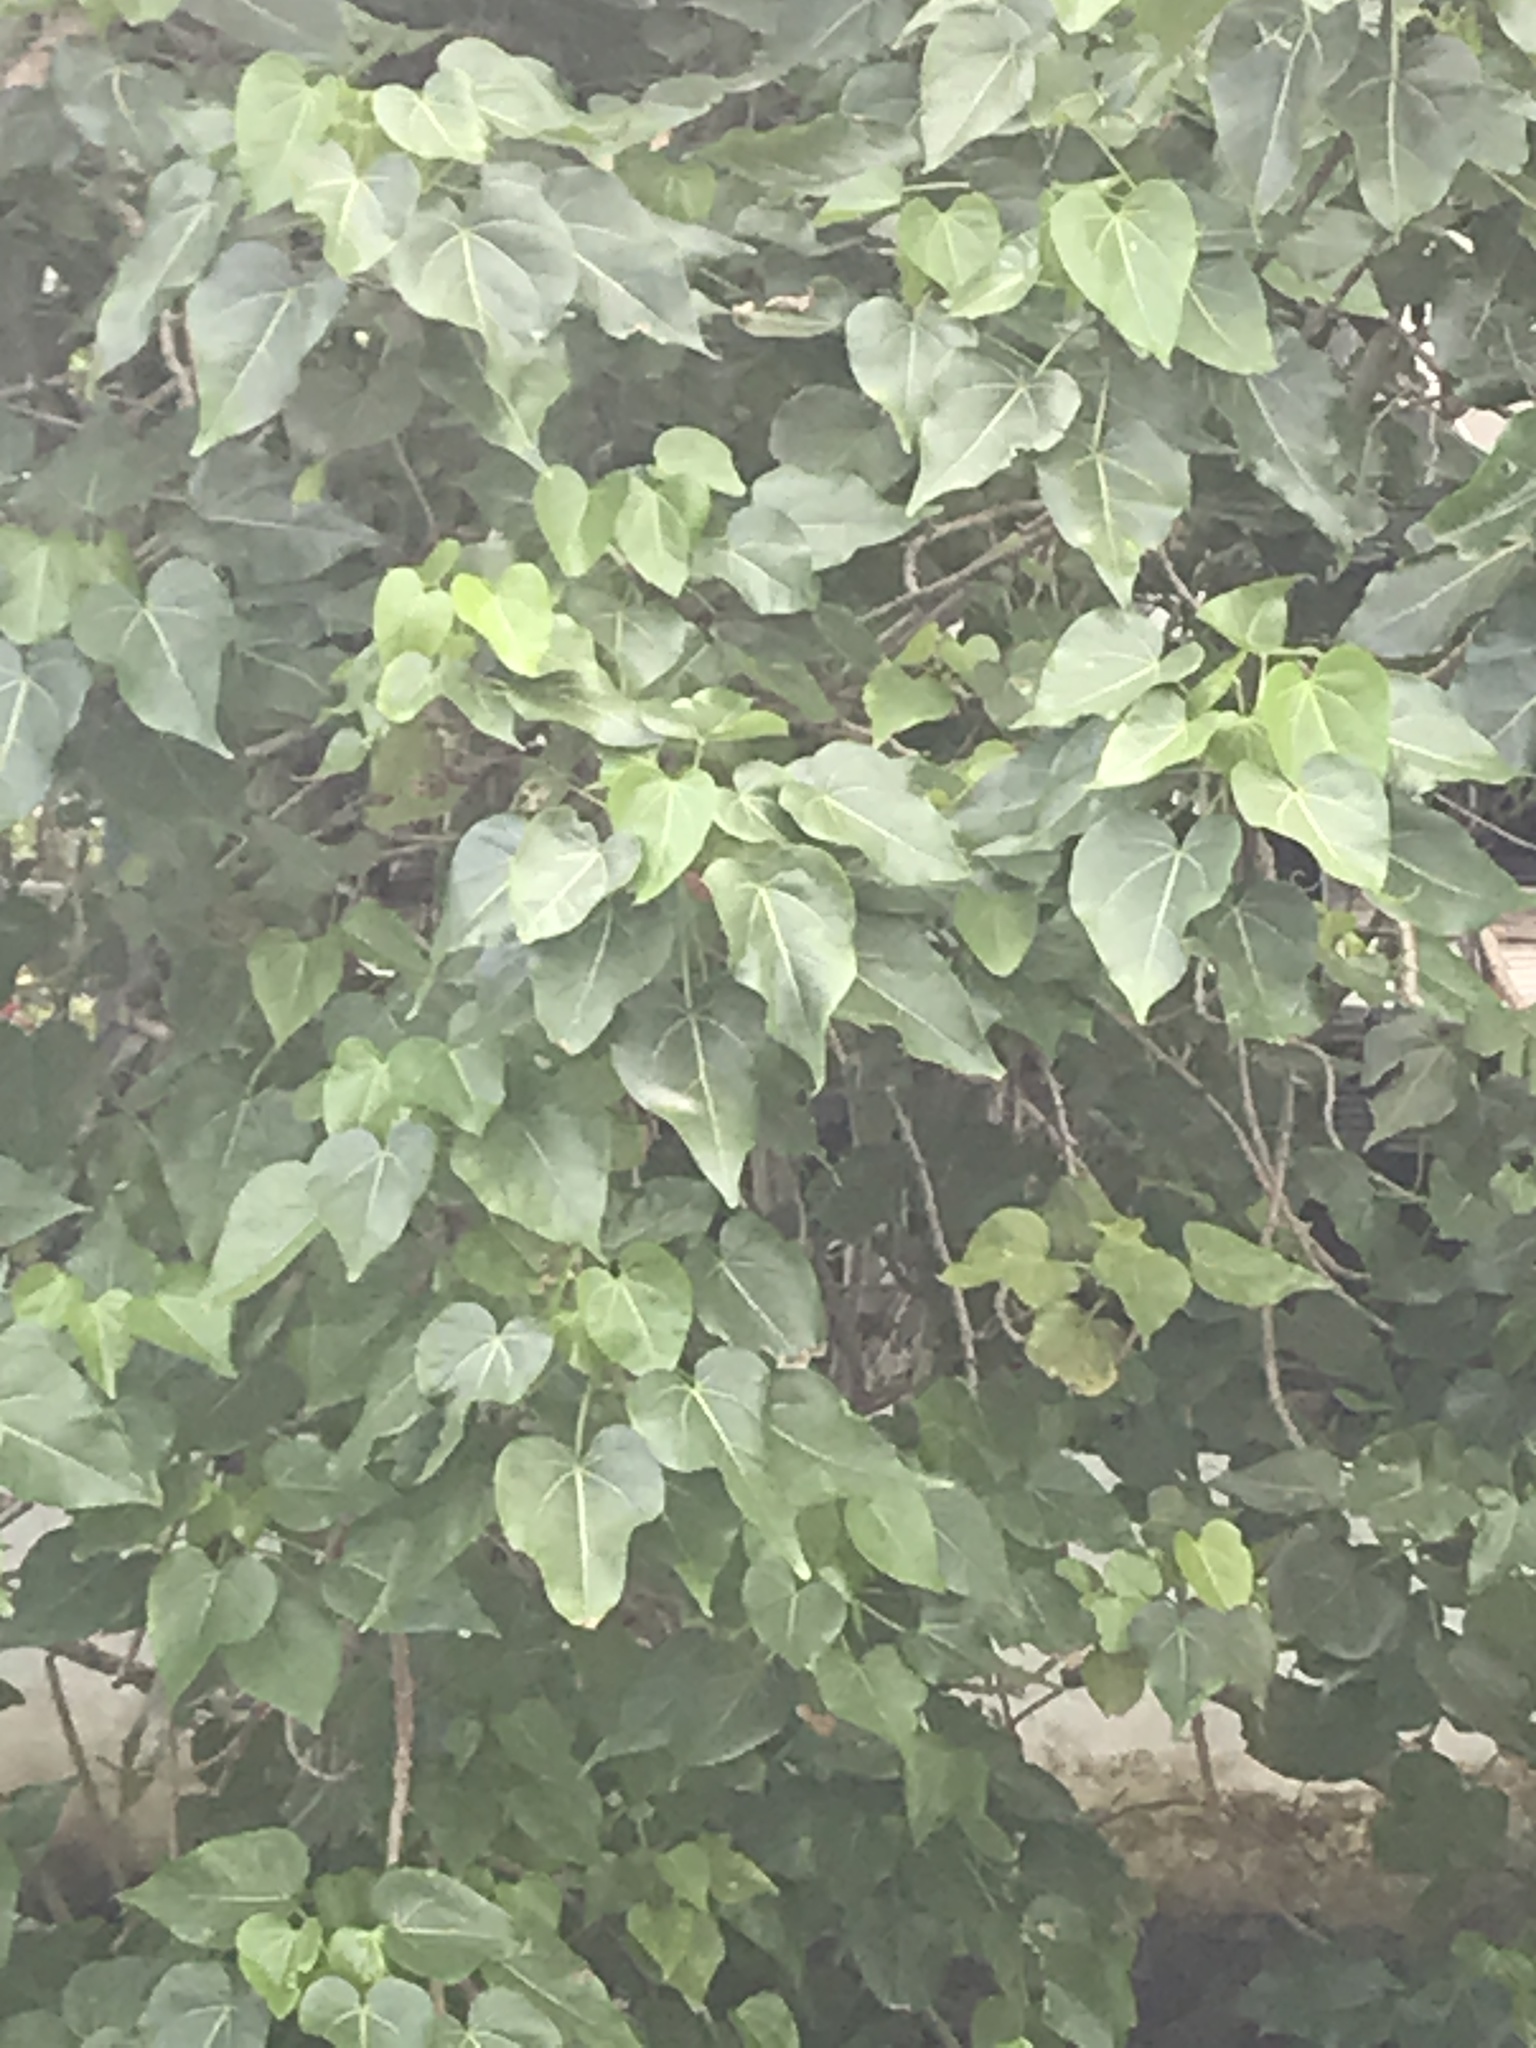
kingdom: Plantae
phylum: Tracheophyta
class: Magnoliopsida
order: Malvales
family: Malvaceae
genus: Thespesia
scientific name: Thespesia populnea
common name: Seaside mahoe
